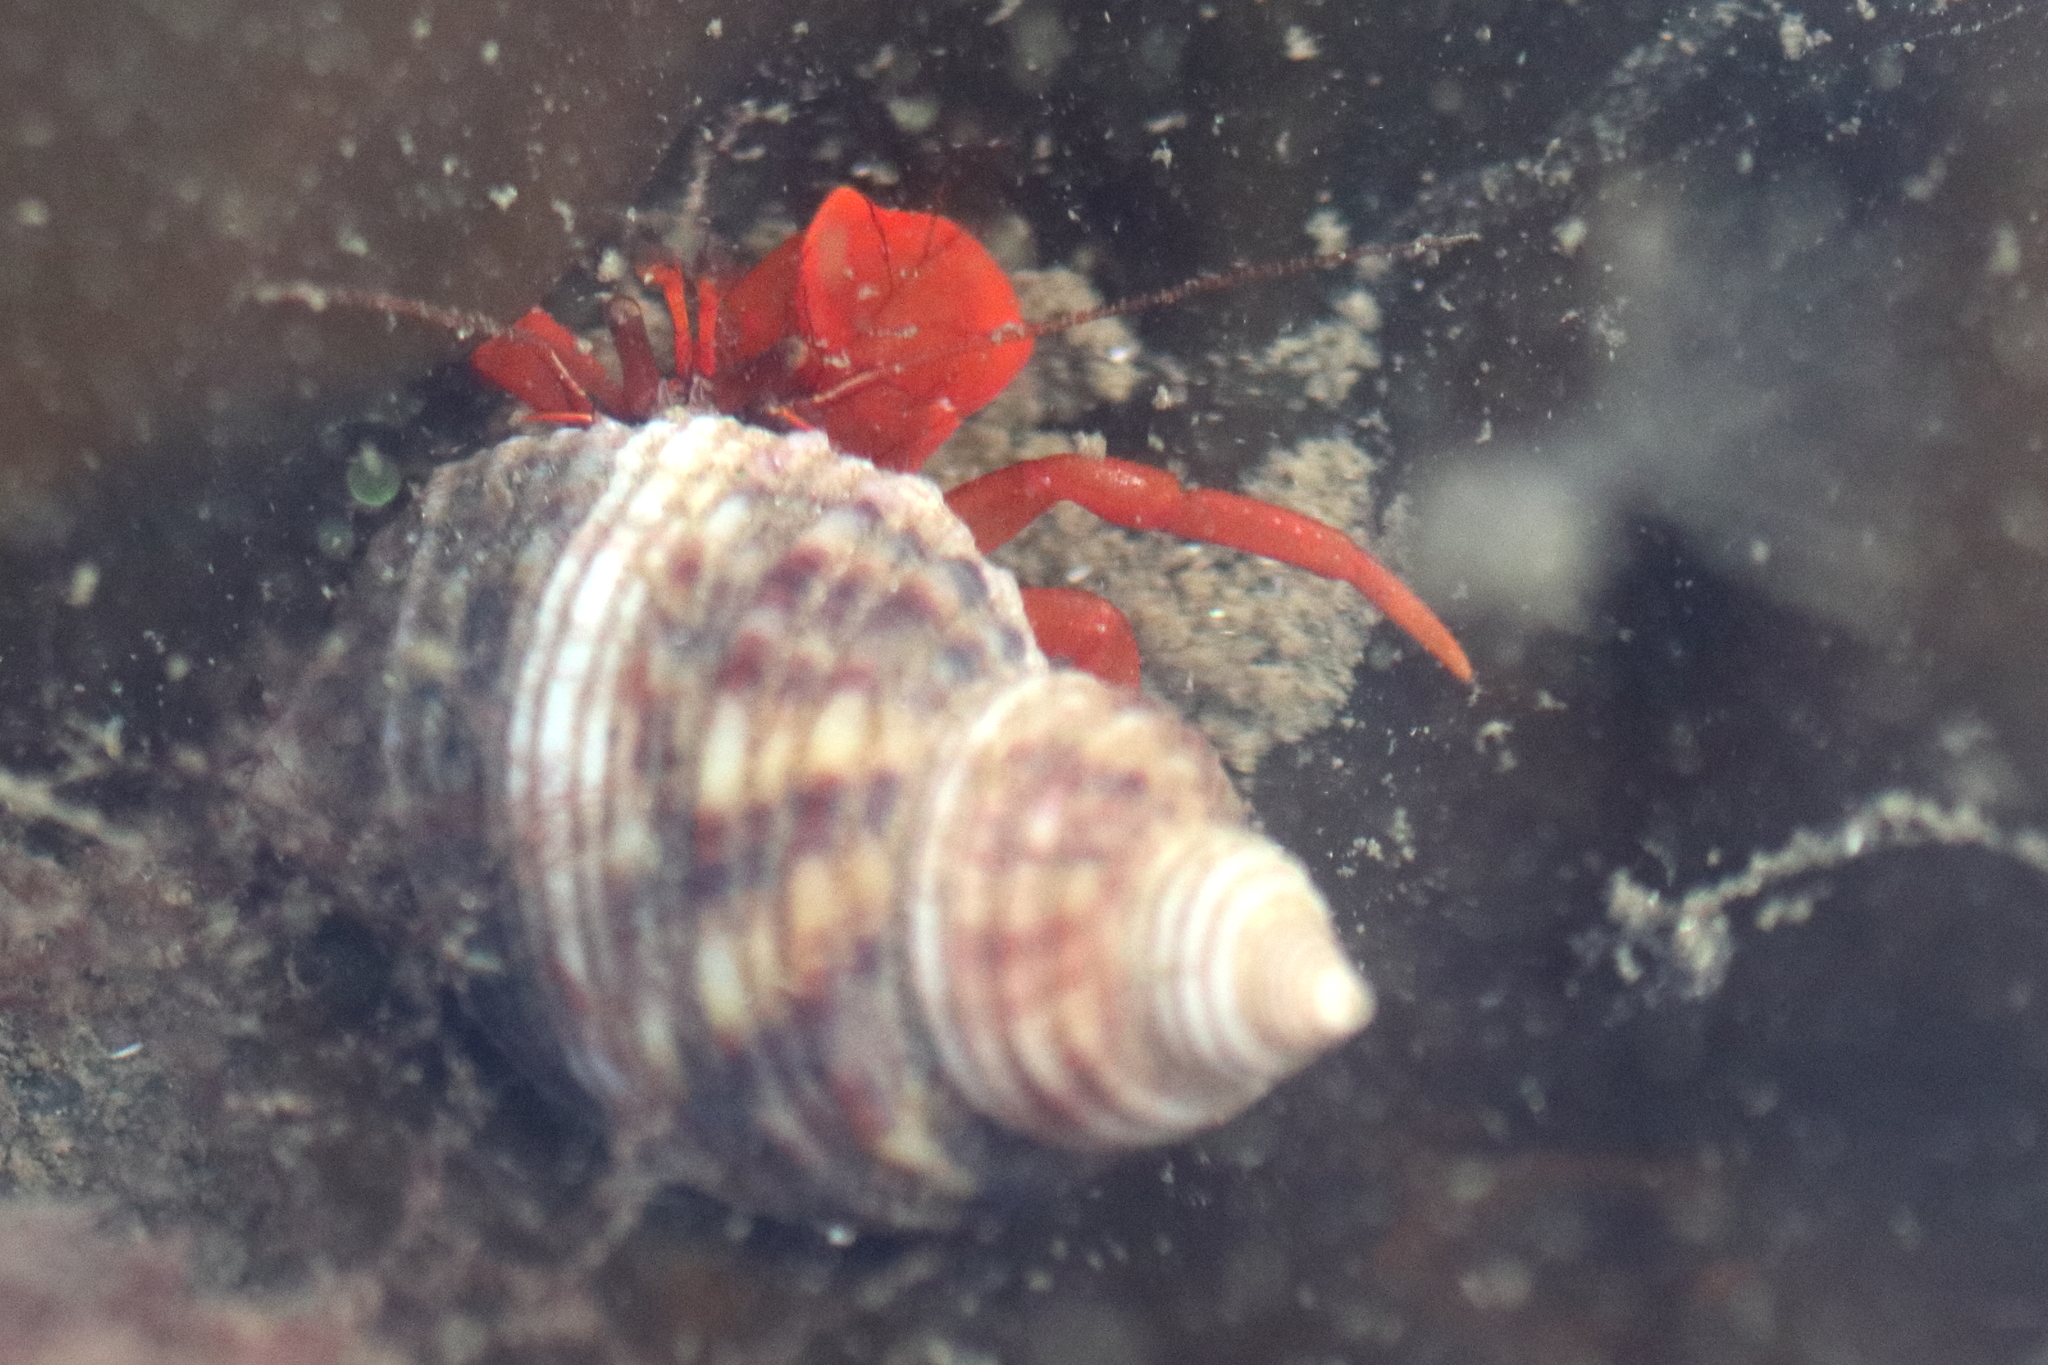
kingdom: Animalia
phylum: Arthropoda
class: Malacostraca
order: Decapoda
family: Paguridae
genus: Elassochirus
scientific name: Elassochirus gilli
